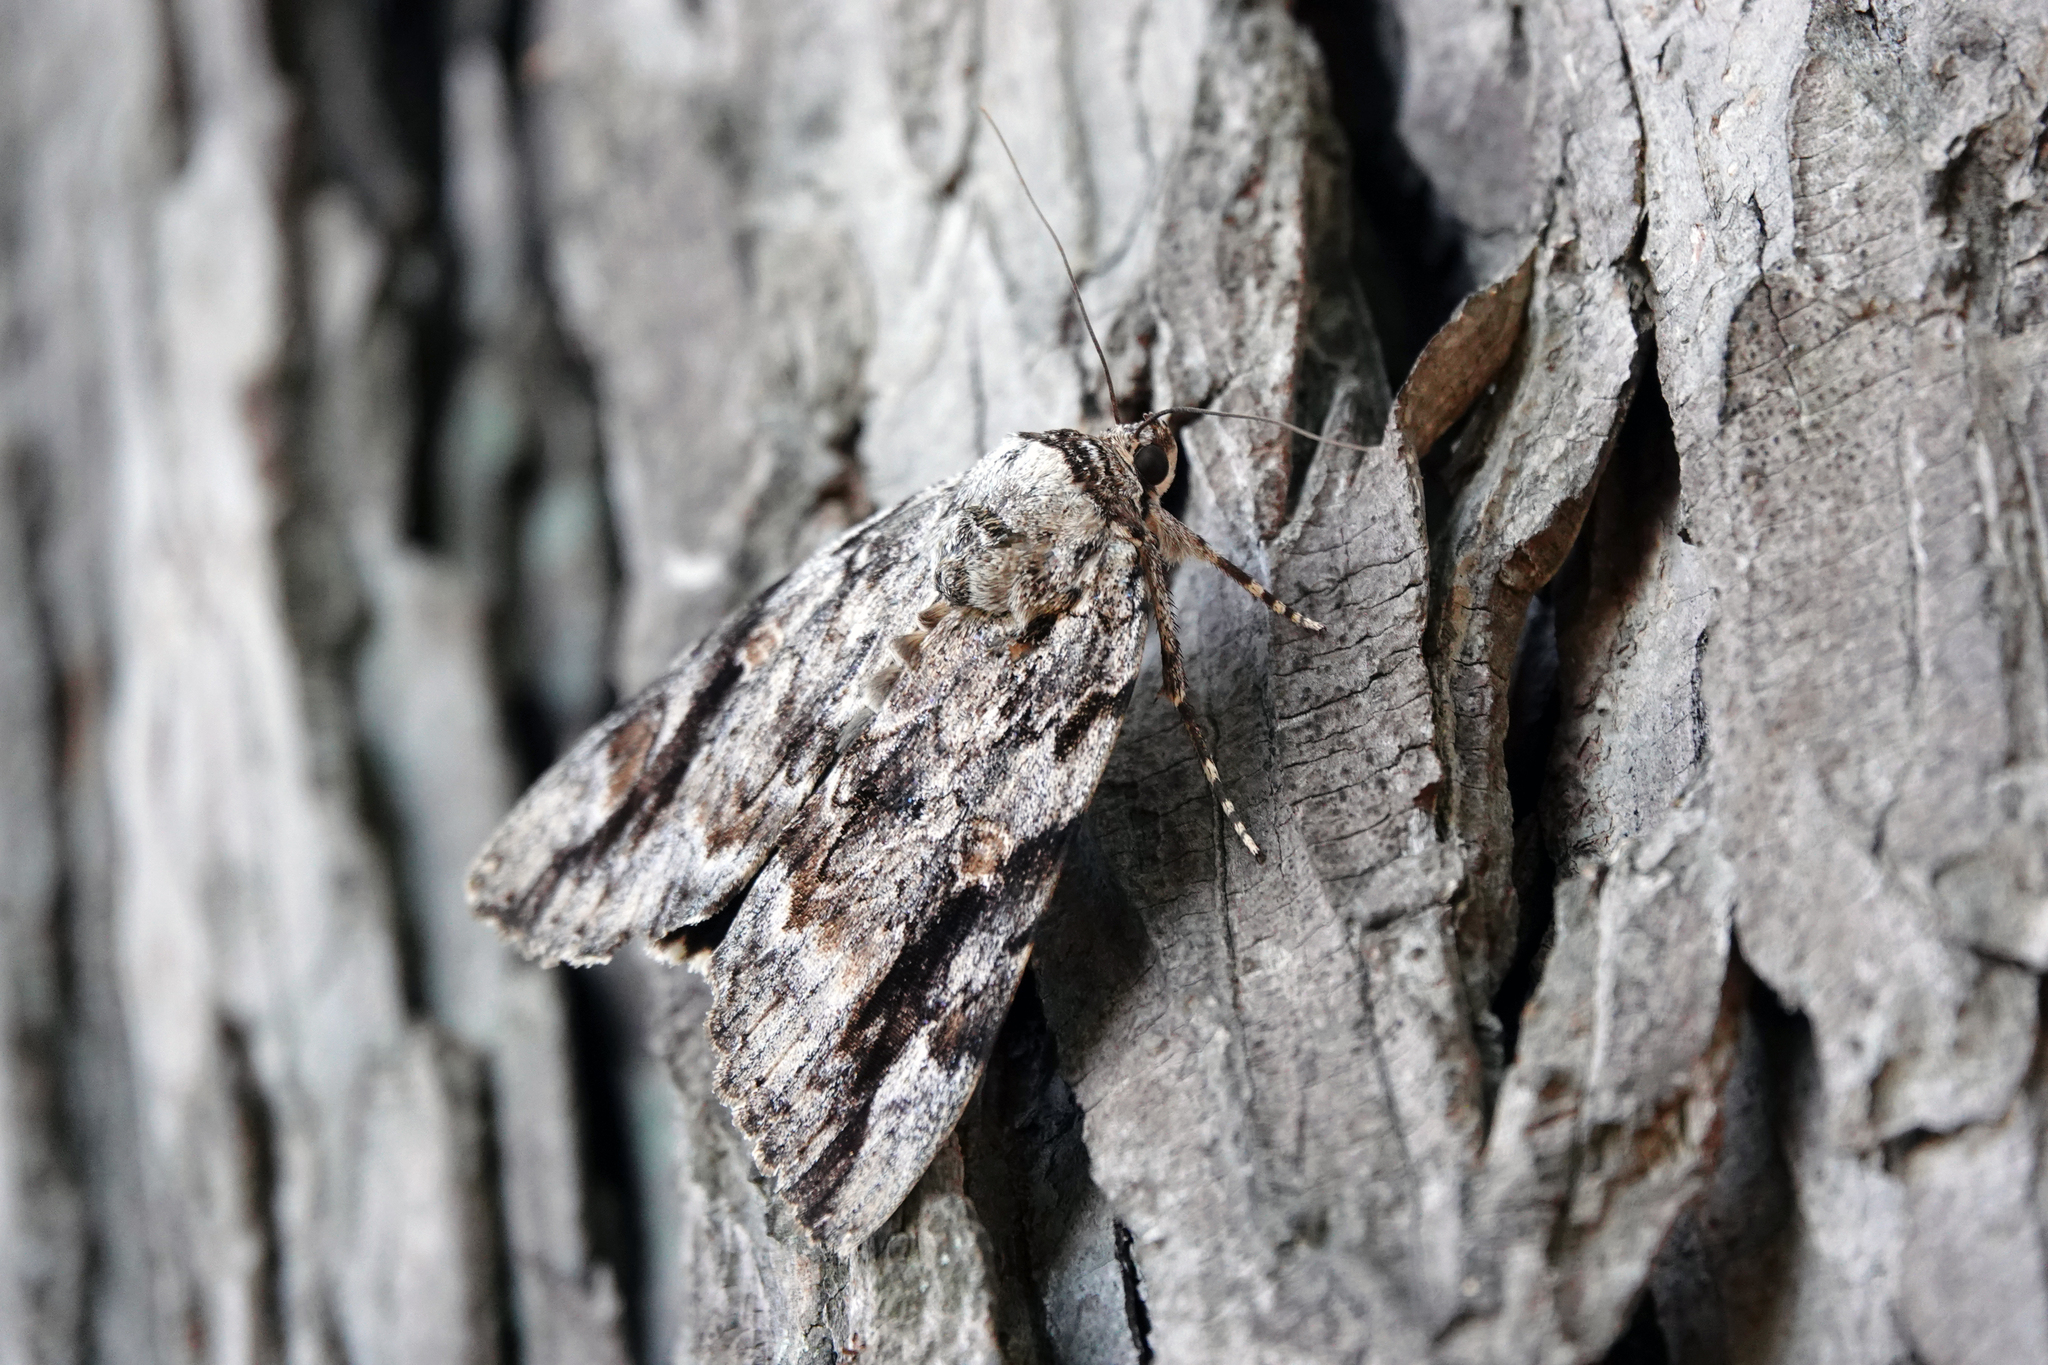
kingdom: Animalia
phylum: Arthropoda
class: Insecta
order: Lepidoptera
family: Erebidae
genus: Catocala
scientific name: Catocala maestosa
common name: Sad underwing
